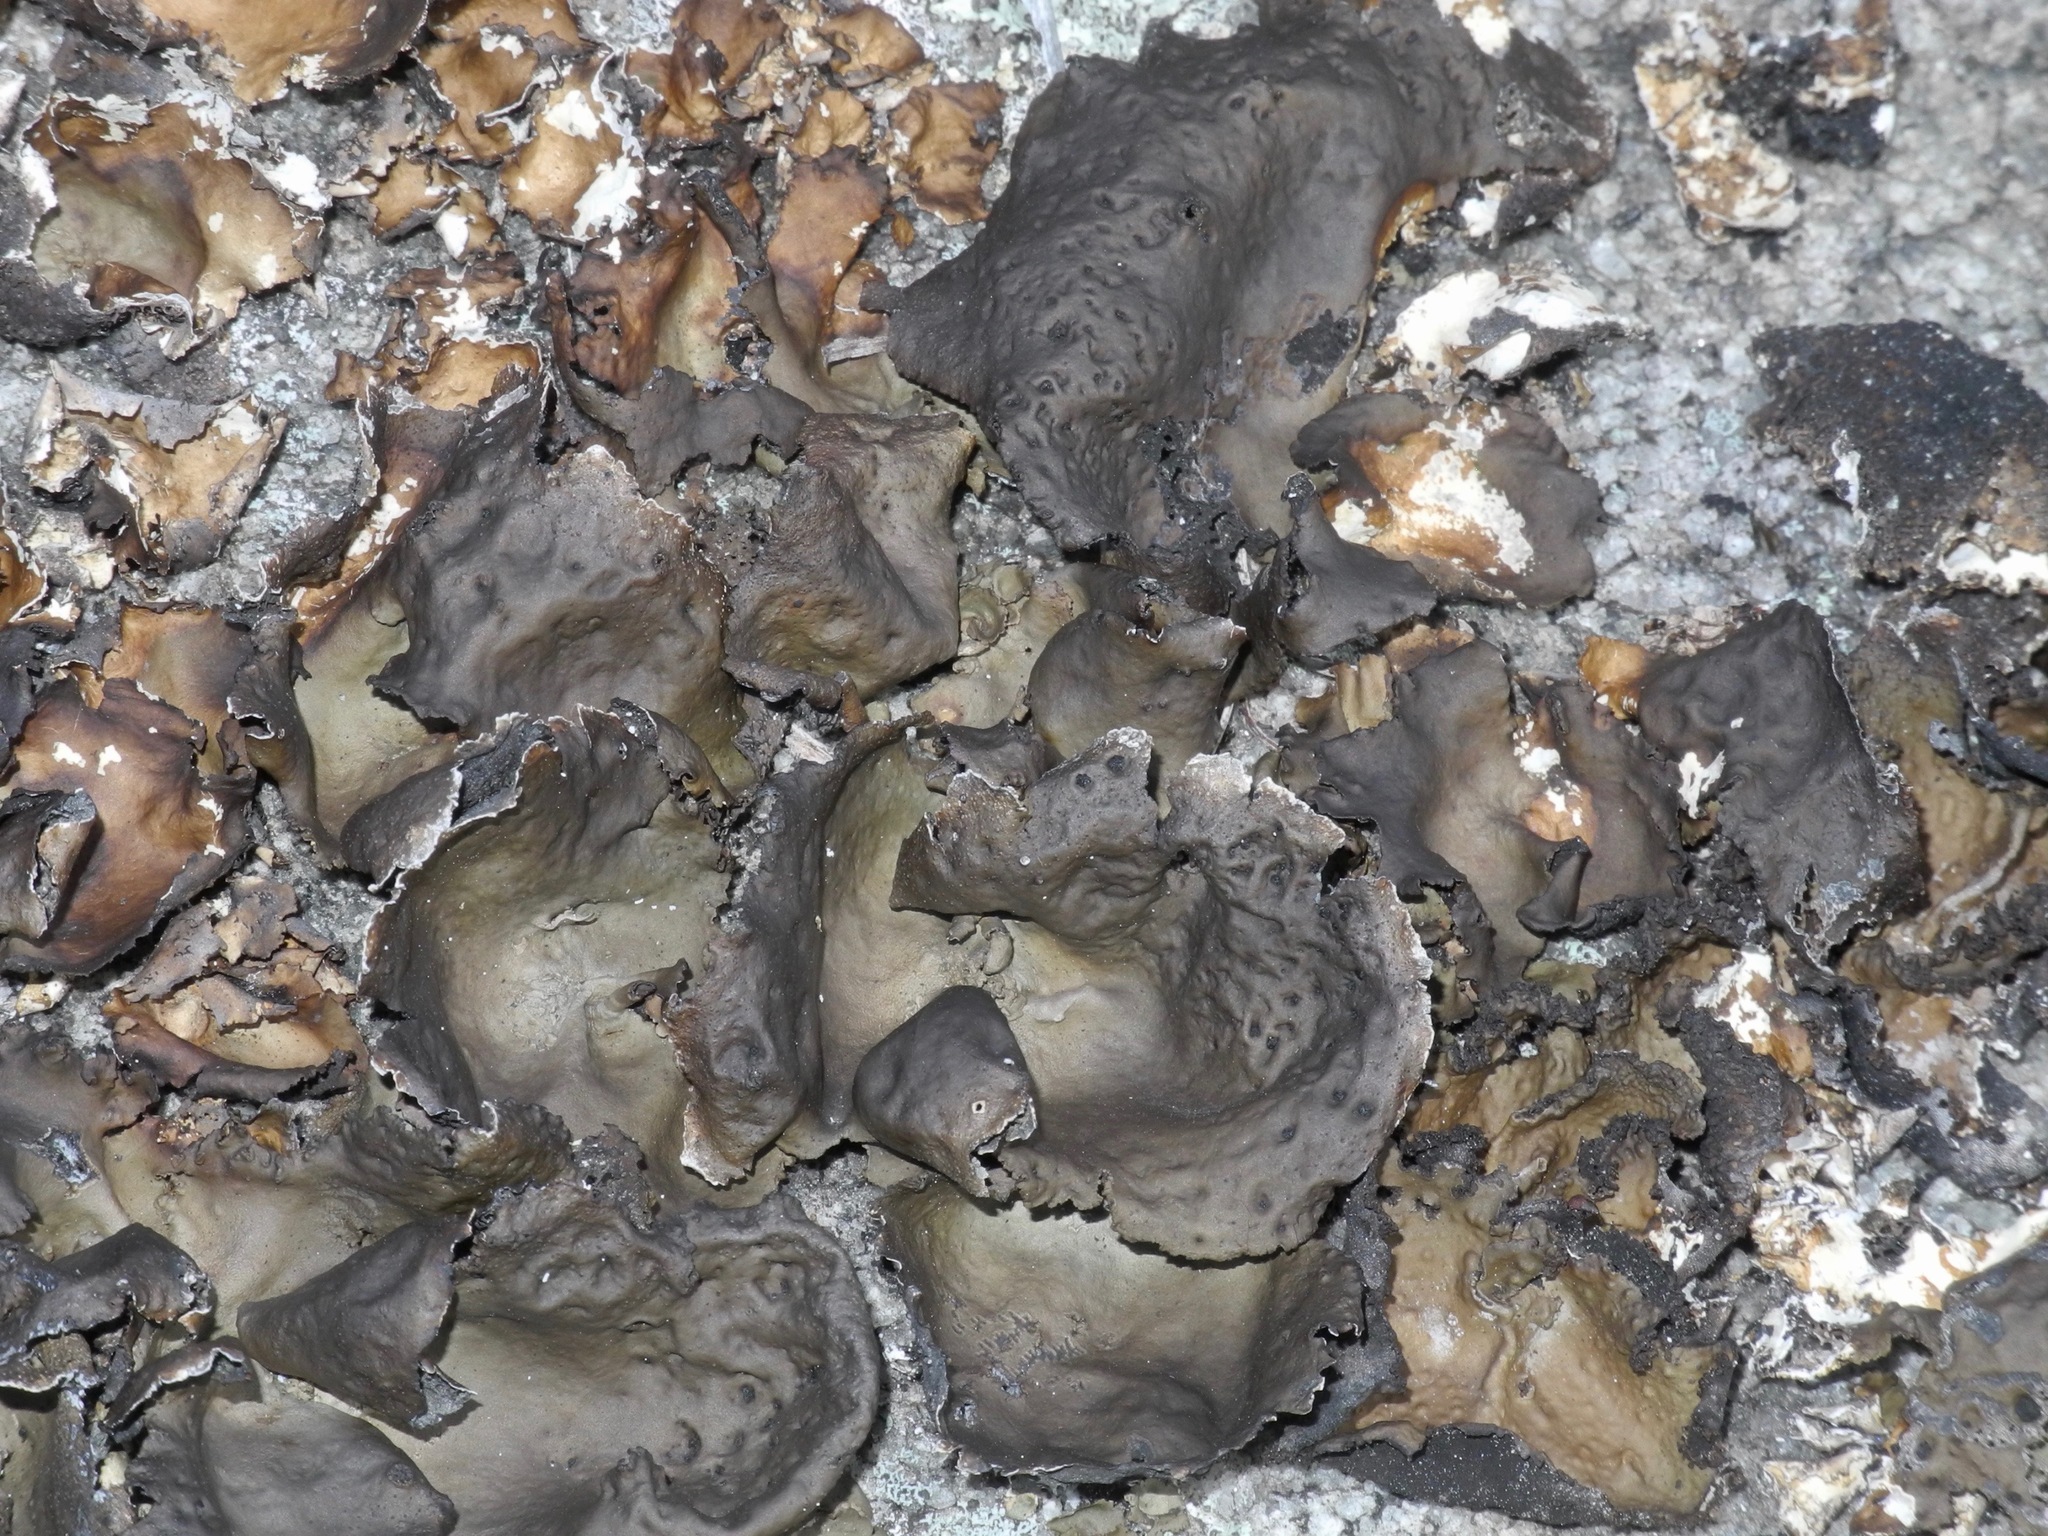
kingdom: Fungi
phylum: Ascomycota
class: Lecanoromycetes
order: Umbilicariales
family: Umbilicariaceae
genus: Umbilicaria
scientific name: Umbilicaria muhlenbergii
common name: Lesser rocktripe
